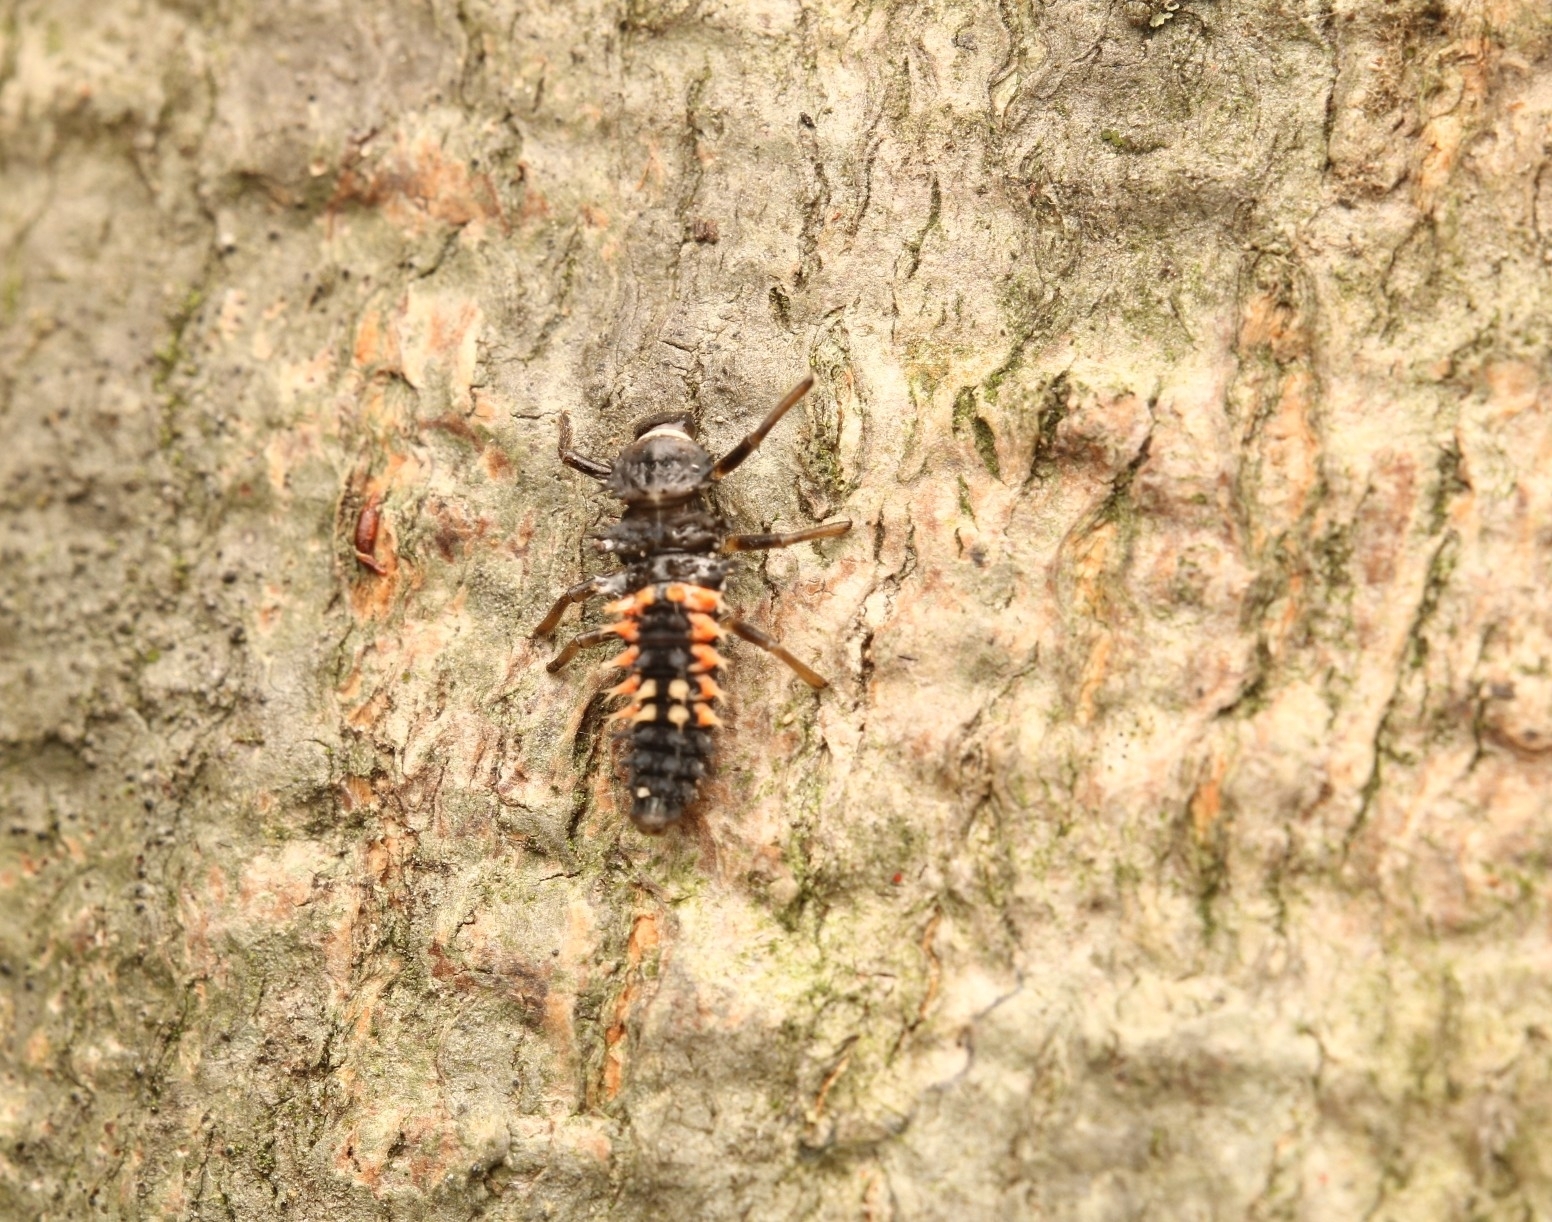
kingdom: Animalia
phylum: Arthropoda
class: Insecta
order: Coleoptera
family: Coccinellidae
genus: Harmonia
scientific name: Harmonia axyridis
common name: Harlequin ladybird
